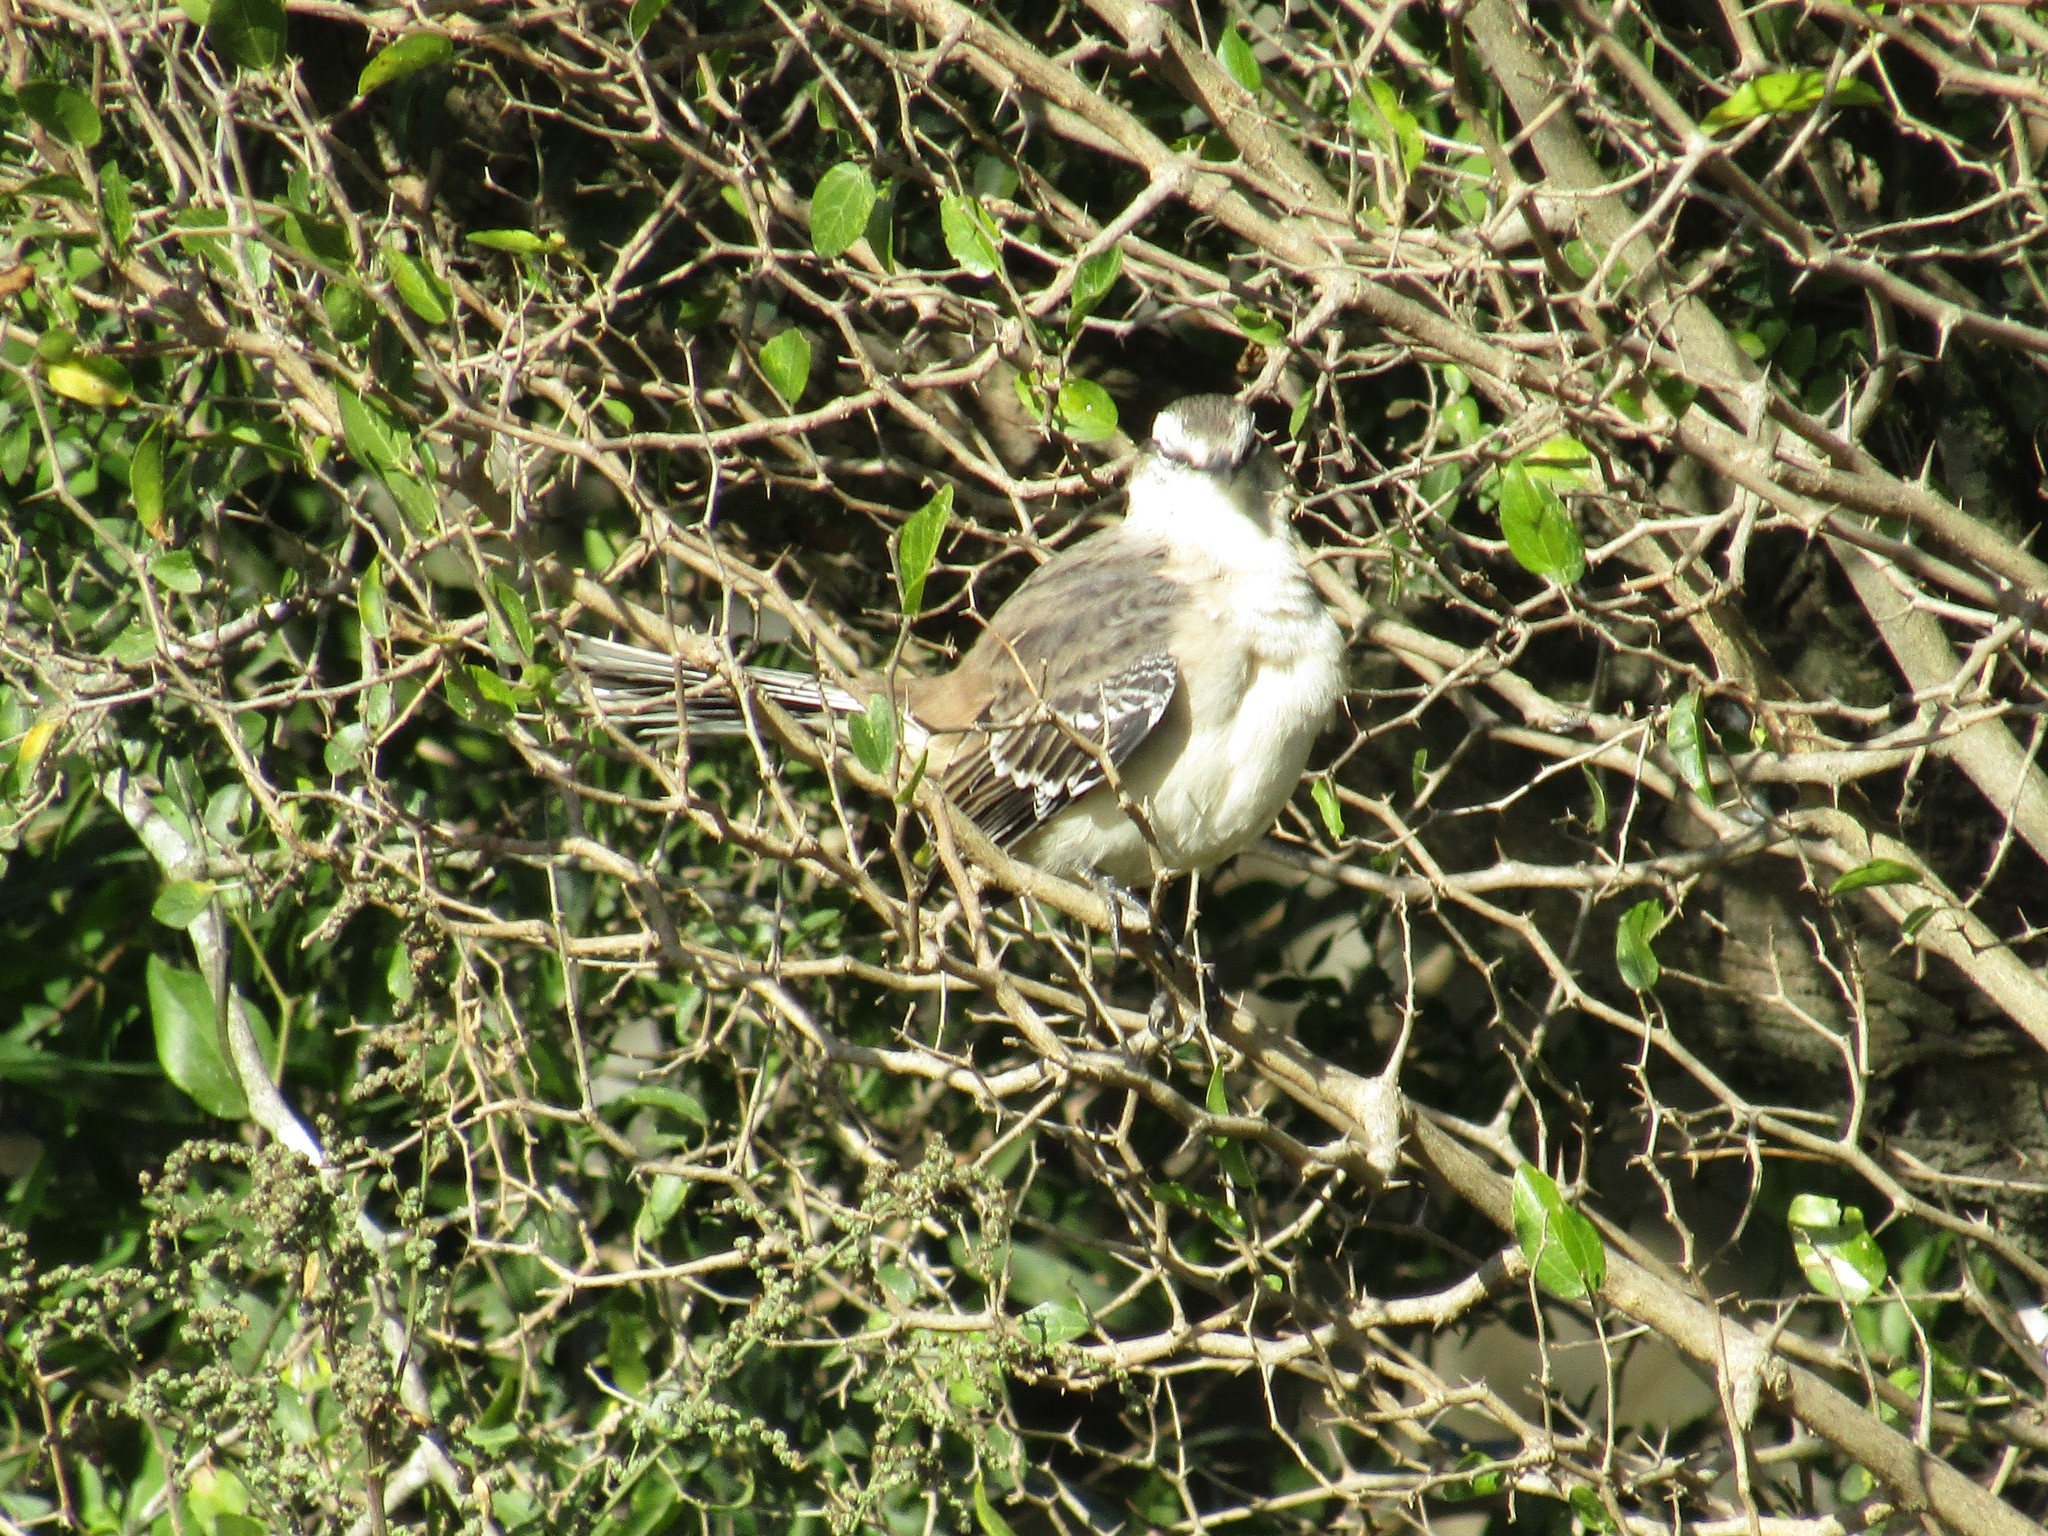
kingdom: Animalia
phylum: Chordata
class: Aves
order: Passeriformes
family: Mimidae
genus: Mimus
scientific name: Mimus saturninus
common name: Chalk-browed mockingbird
